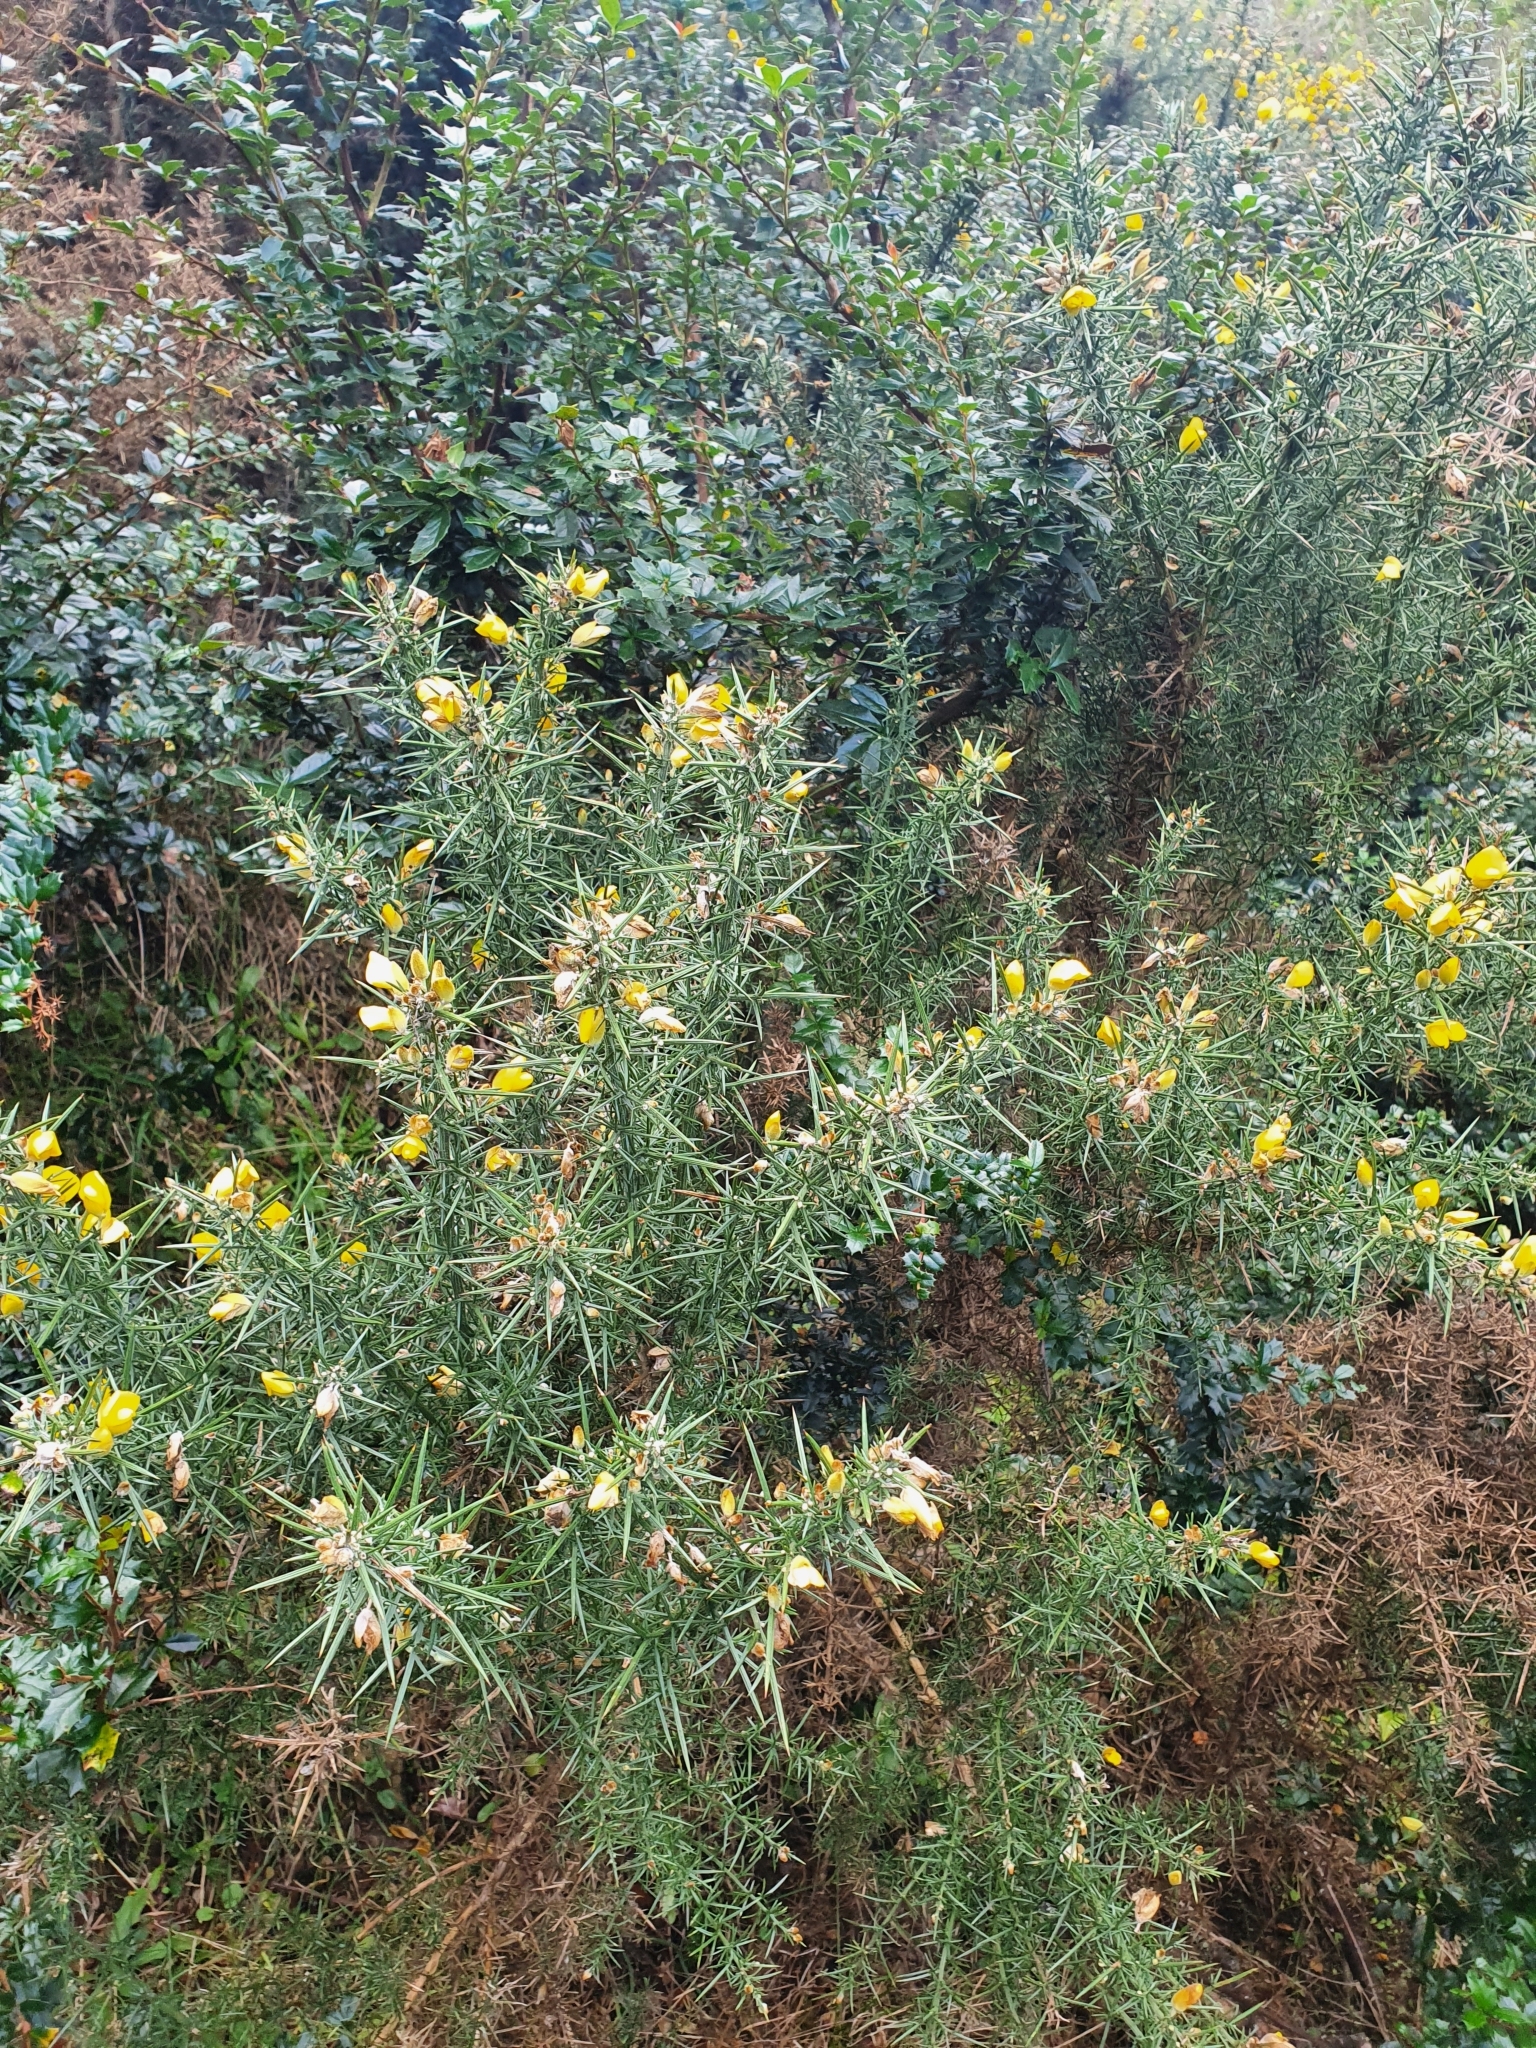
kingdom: Plantae
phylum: Tracheophyta
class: Magnoliopsida
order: Fabales
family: Fabaceae
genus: Ulex
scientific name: Ulex europaeus
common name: Common gorse
